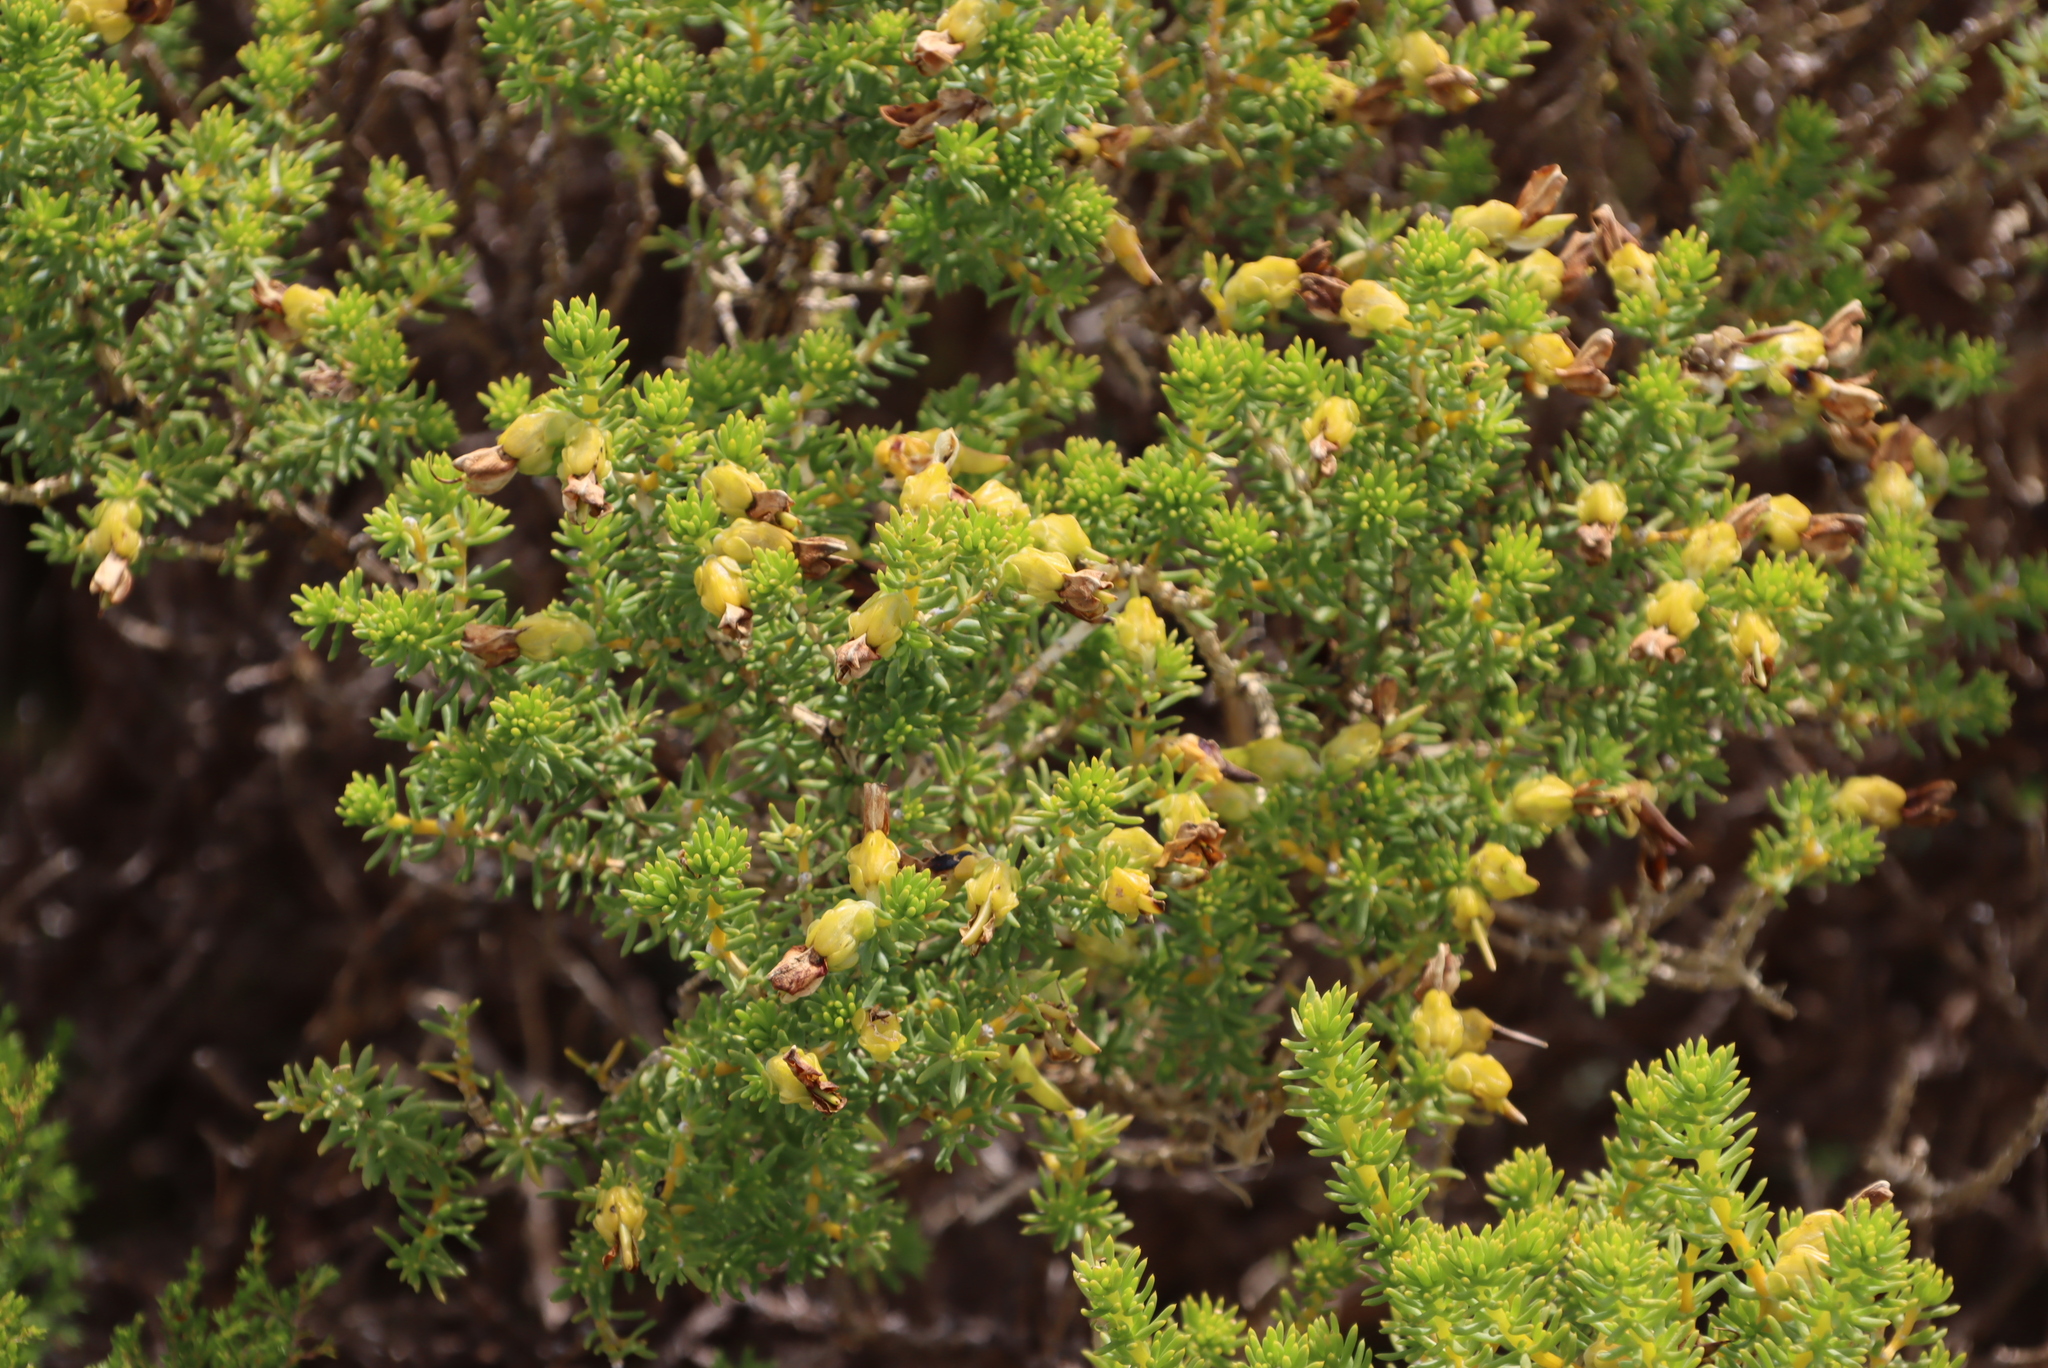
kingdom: Plantae
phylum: Tracheophyta
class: Magnoliopsida
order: Fabales
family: Fabaceae
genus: Aspalathus
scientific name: Aspalathus capensis
